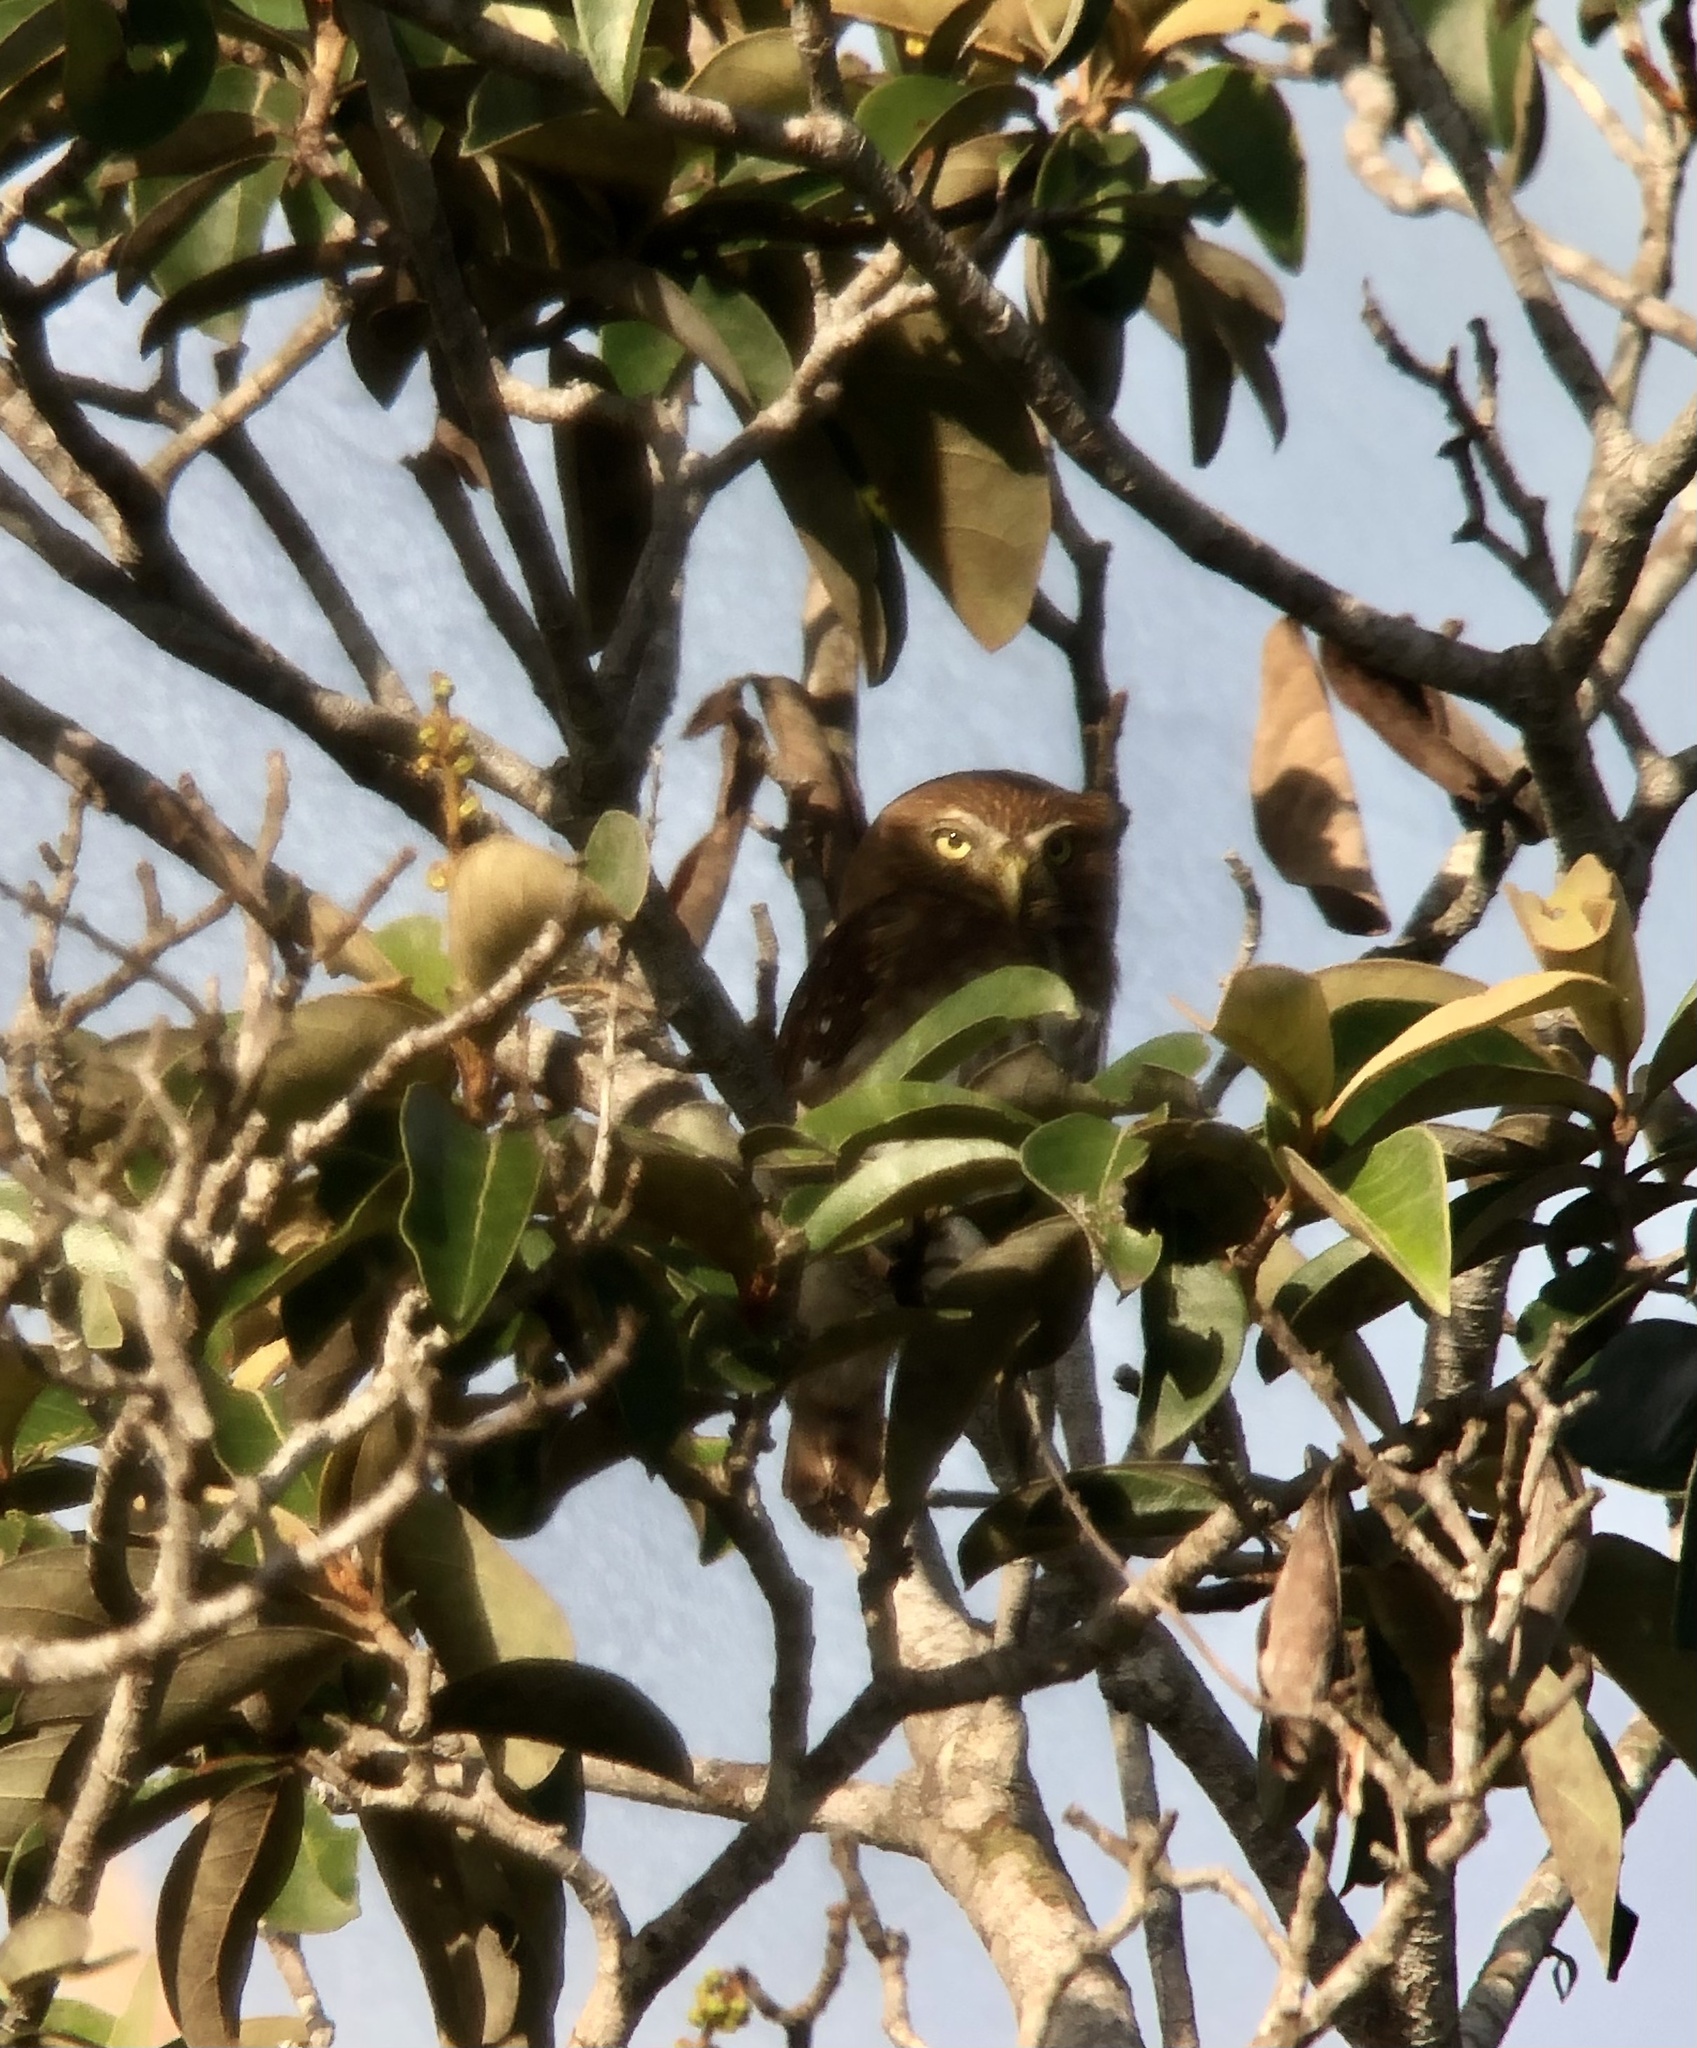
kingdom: Animalia
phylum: Chordata
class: Aves
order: Strigiformes
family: Strigidae
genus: Glaucidium
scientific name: Glaucidium brasilianum
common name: Ferruginous pygmy-owl
